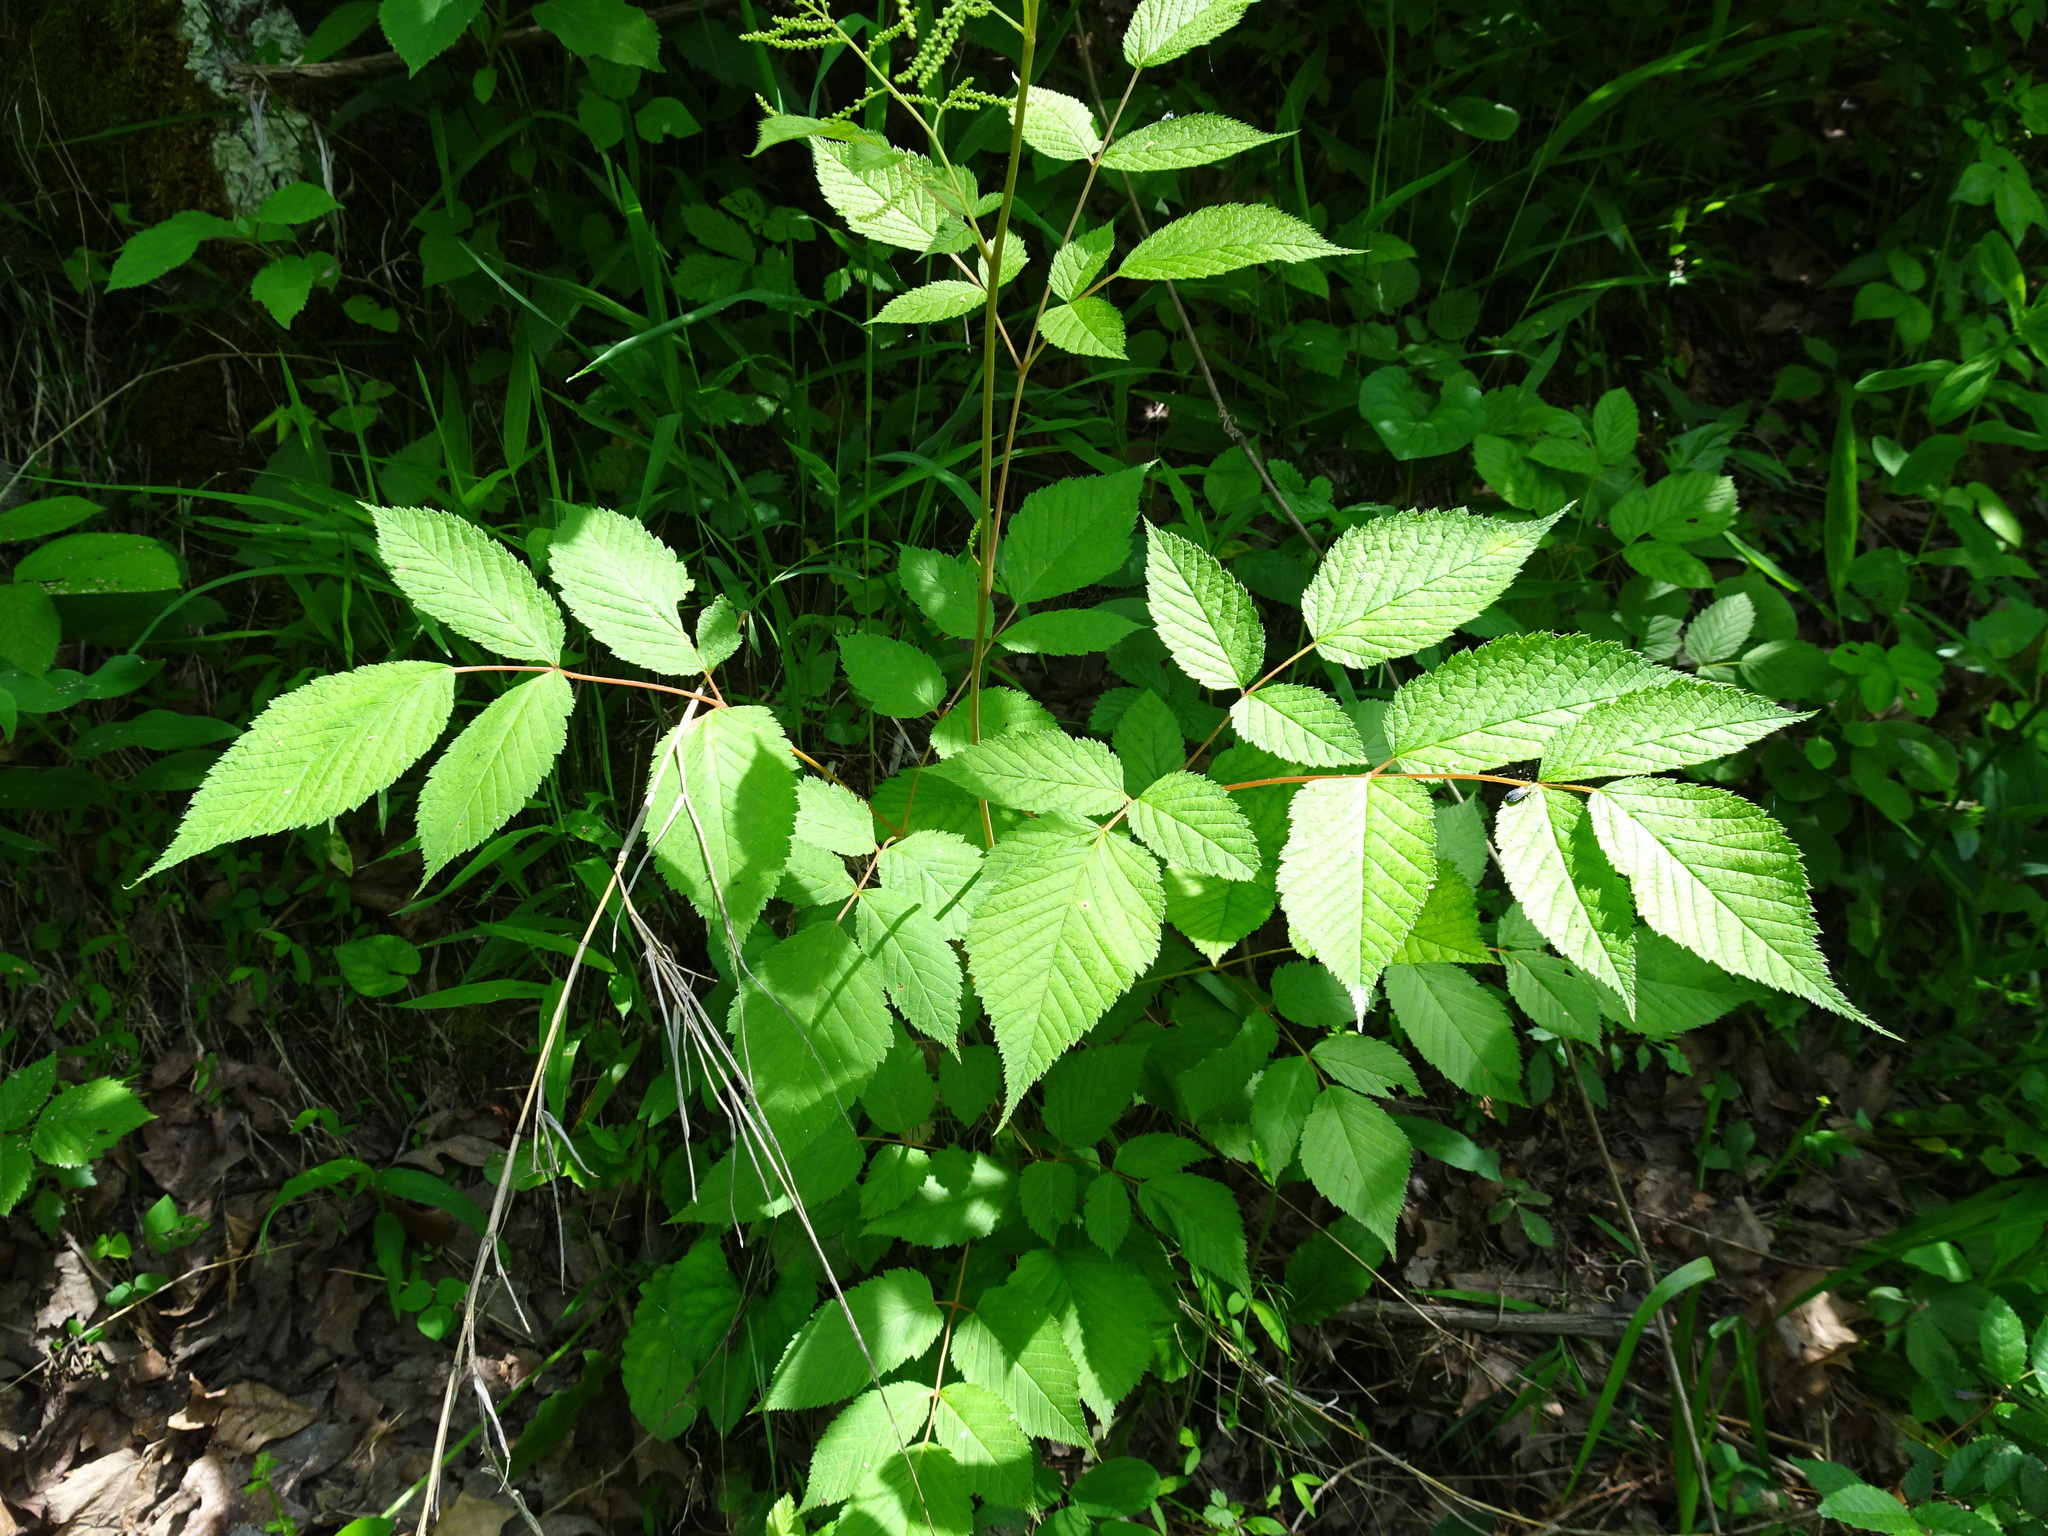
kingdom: Plantae
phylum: Tracheophyta
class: Magnoliopsida
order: Rosales
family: Rosaceae
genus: Aruncus
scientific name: Aruncus dioicus
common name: Buck's-beard
